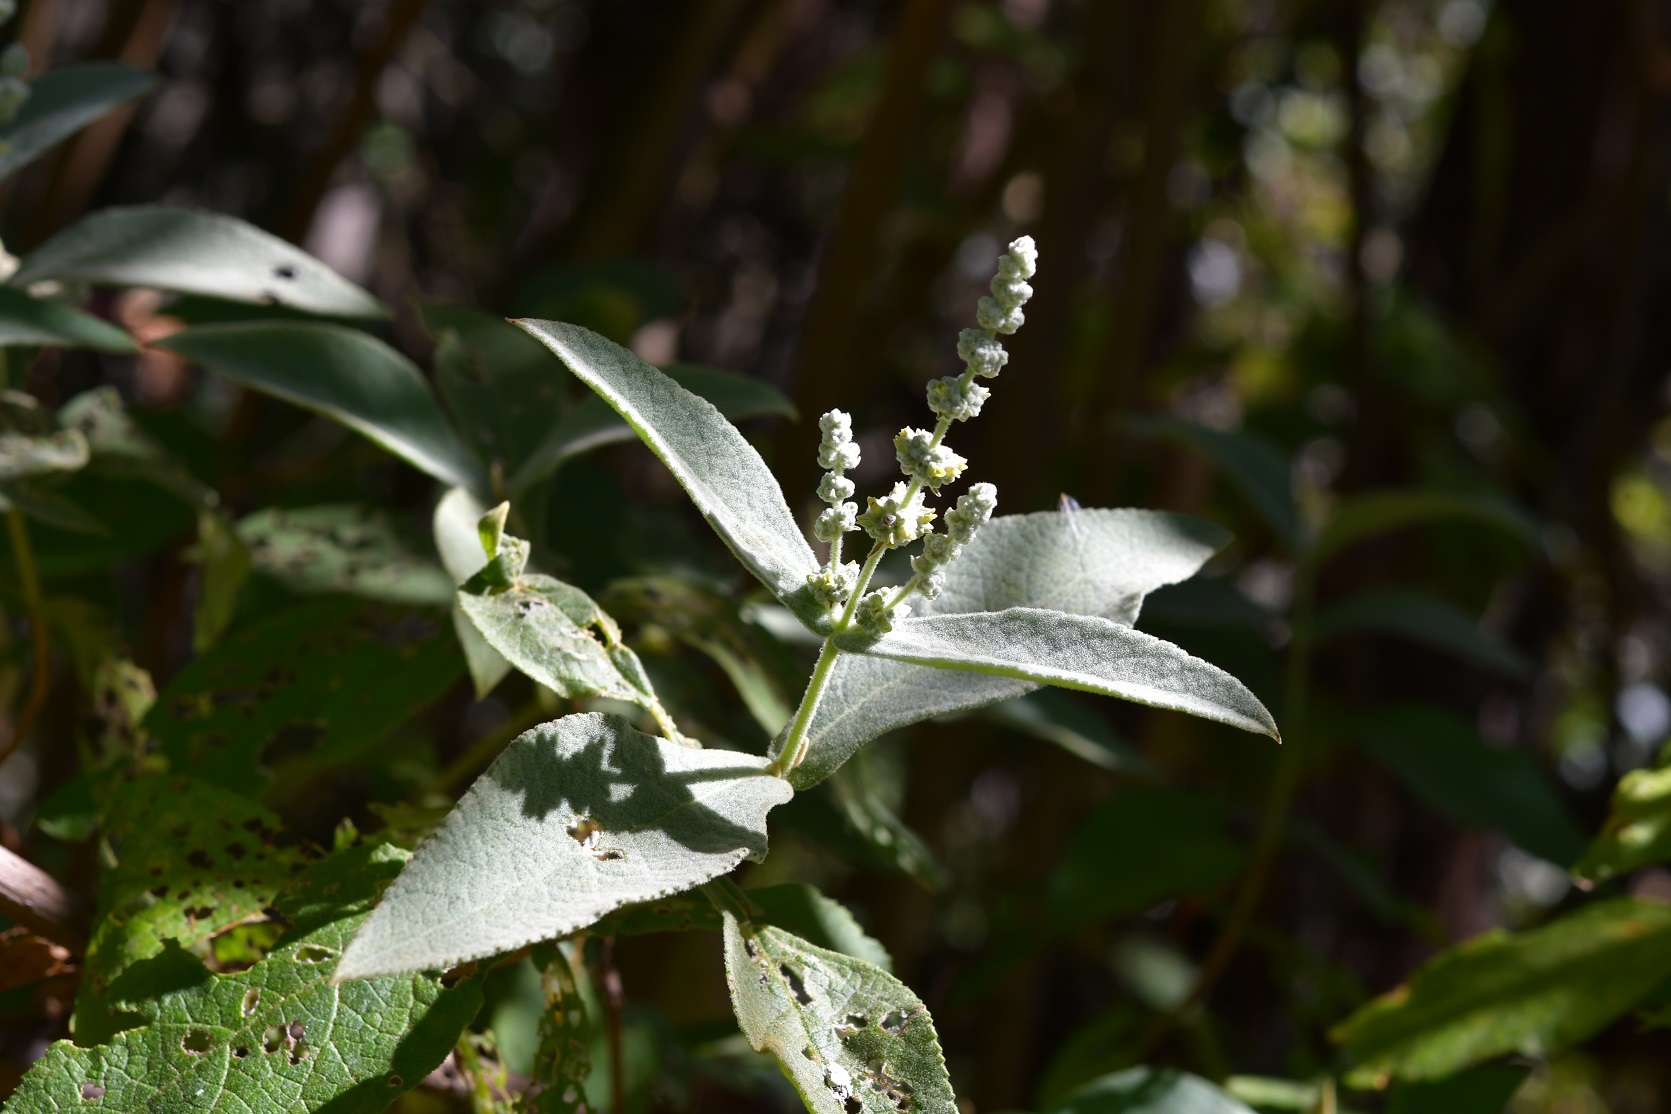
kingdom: Plantae
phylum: Tracheophyta
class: Magnoliopsida
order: Lamiales
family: Scrophulariaceae
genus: Buddleja
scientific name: Buddleja crotonoides
